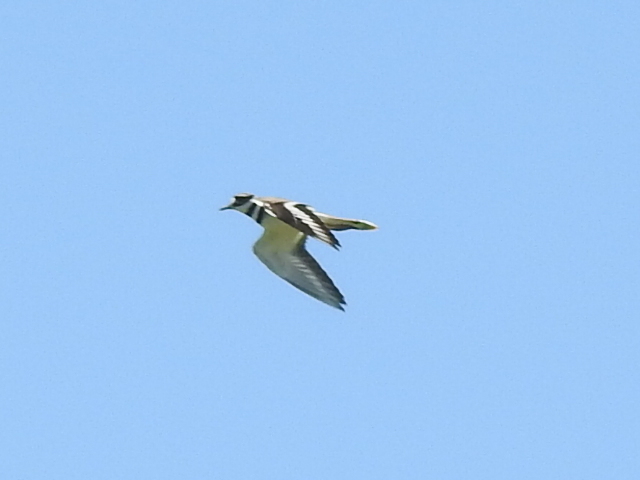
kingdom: Animalia
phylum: Chordata
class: Aves
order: Charadriiformes
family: Charadriidae
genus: Charadrius
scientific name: Charadrius vociferus
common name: Killdeer
